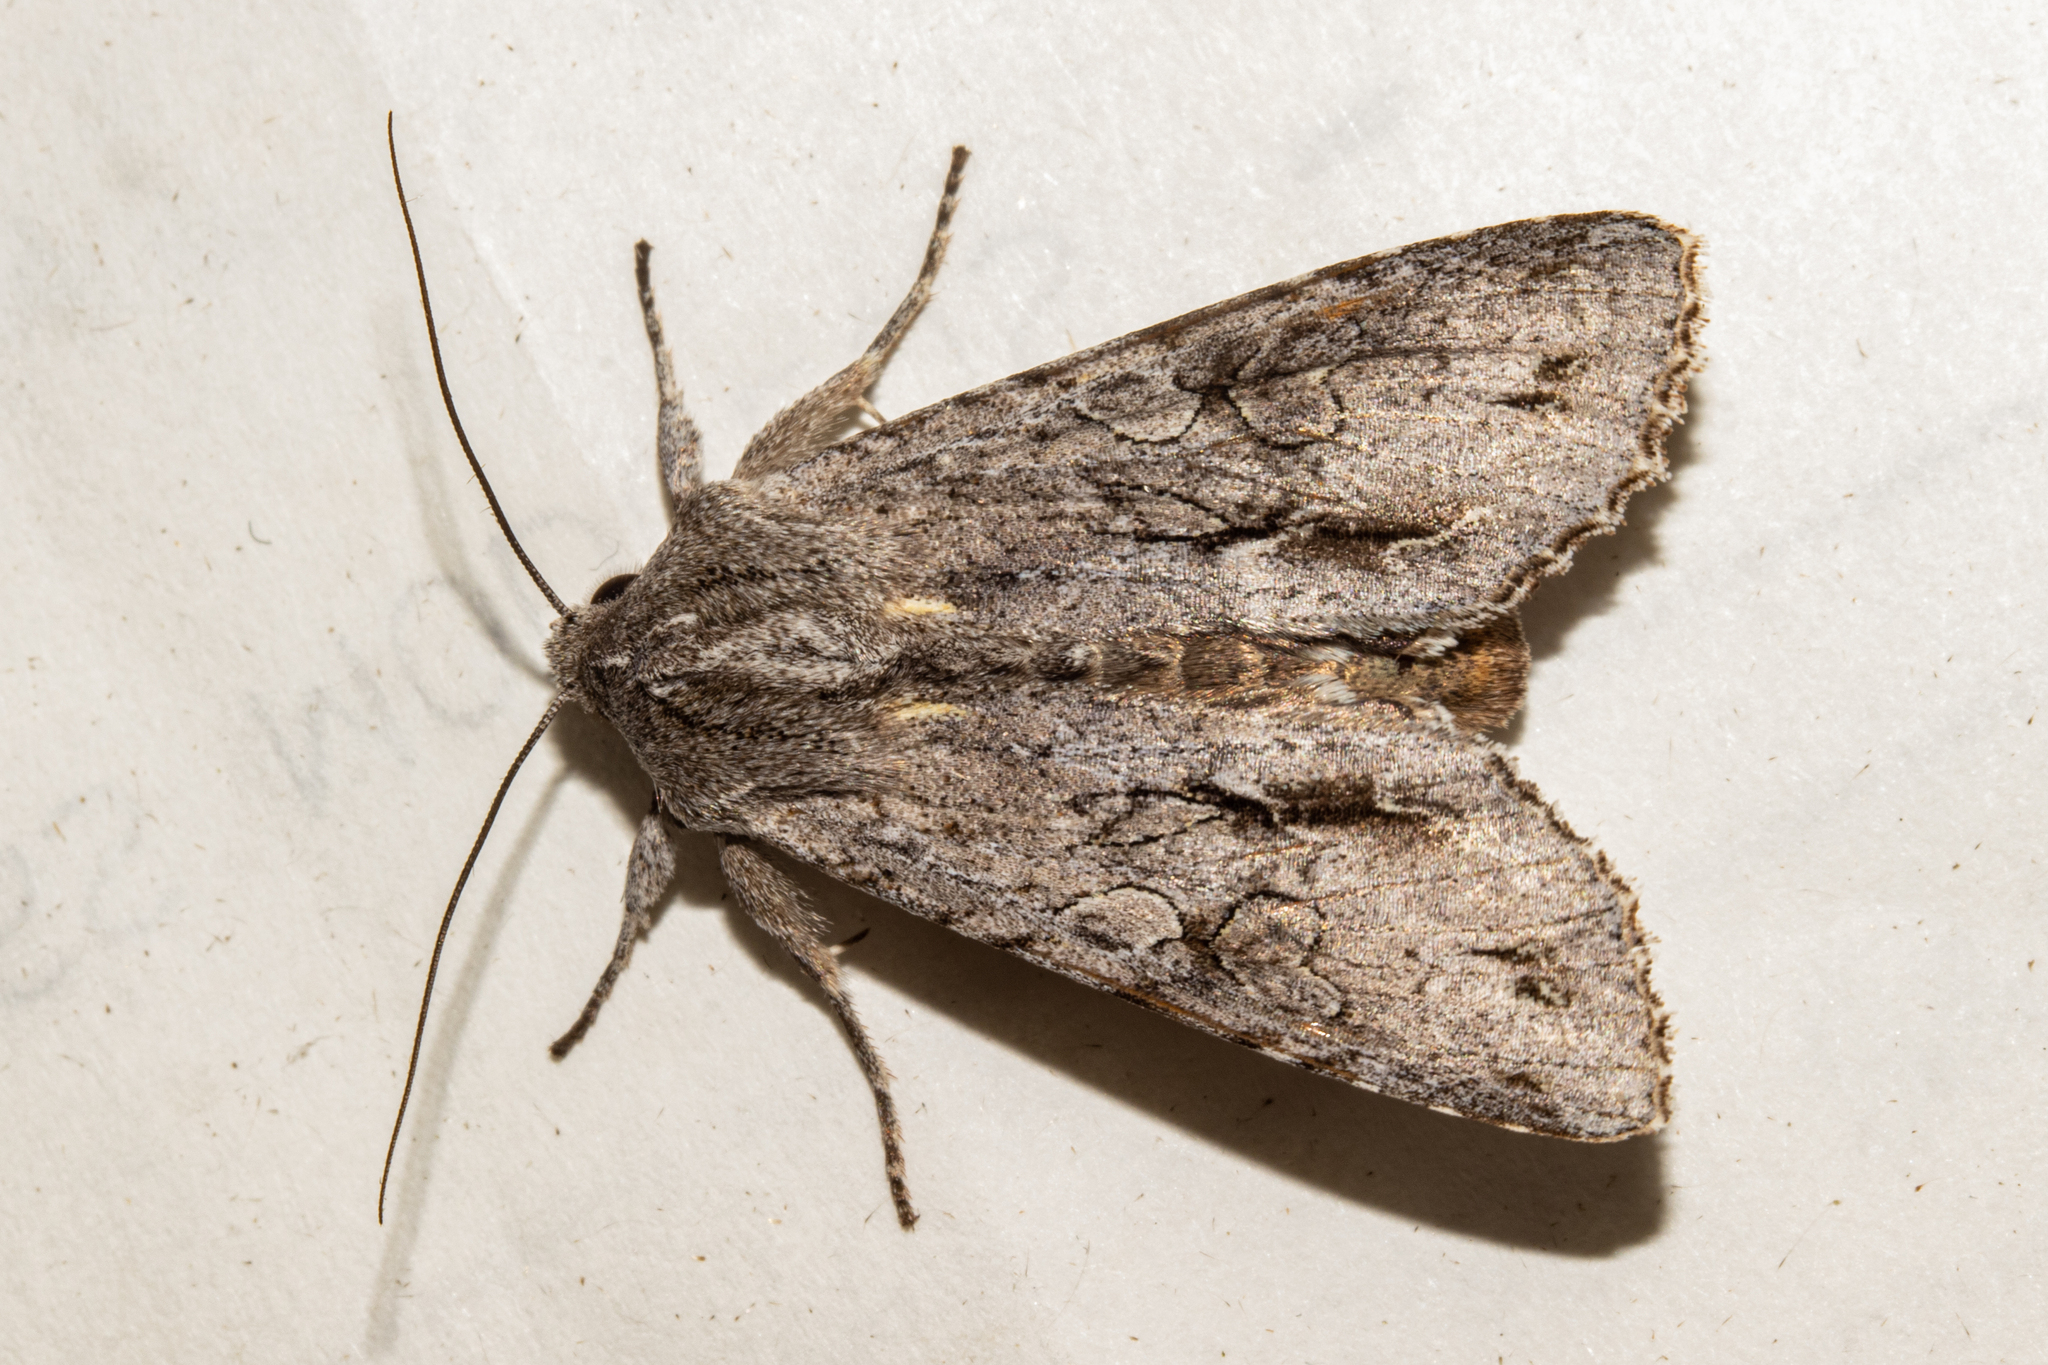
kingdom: Animalia
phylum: Arthropoda
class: Insecta
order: Lepidoptera
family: Noctuidae
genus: Ichneutica
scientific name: Ichneutica
